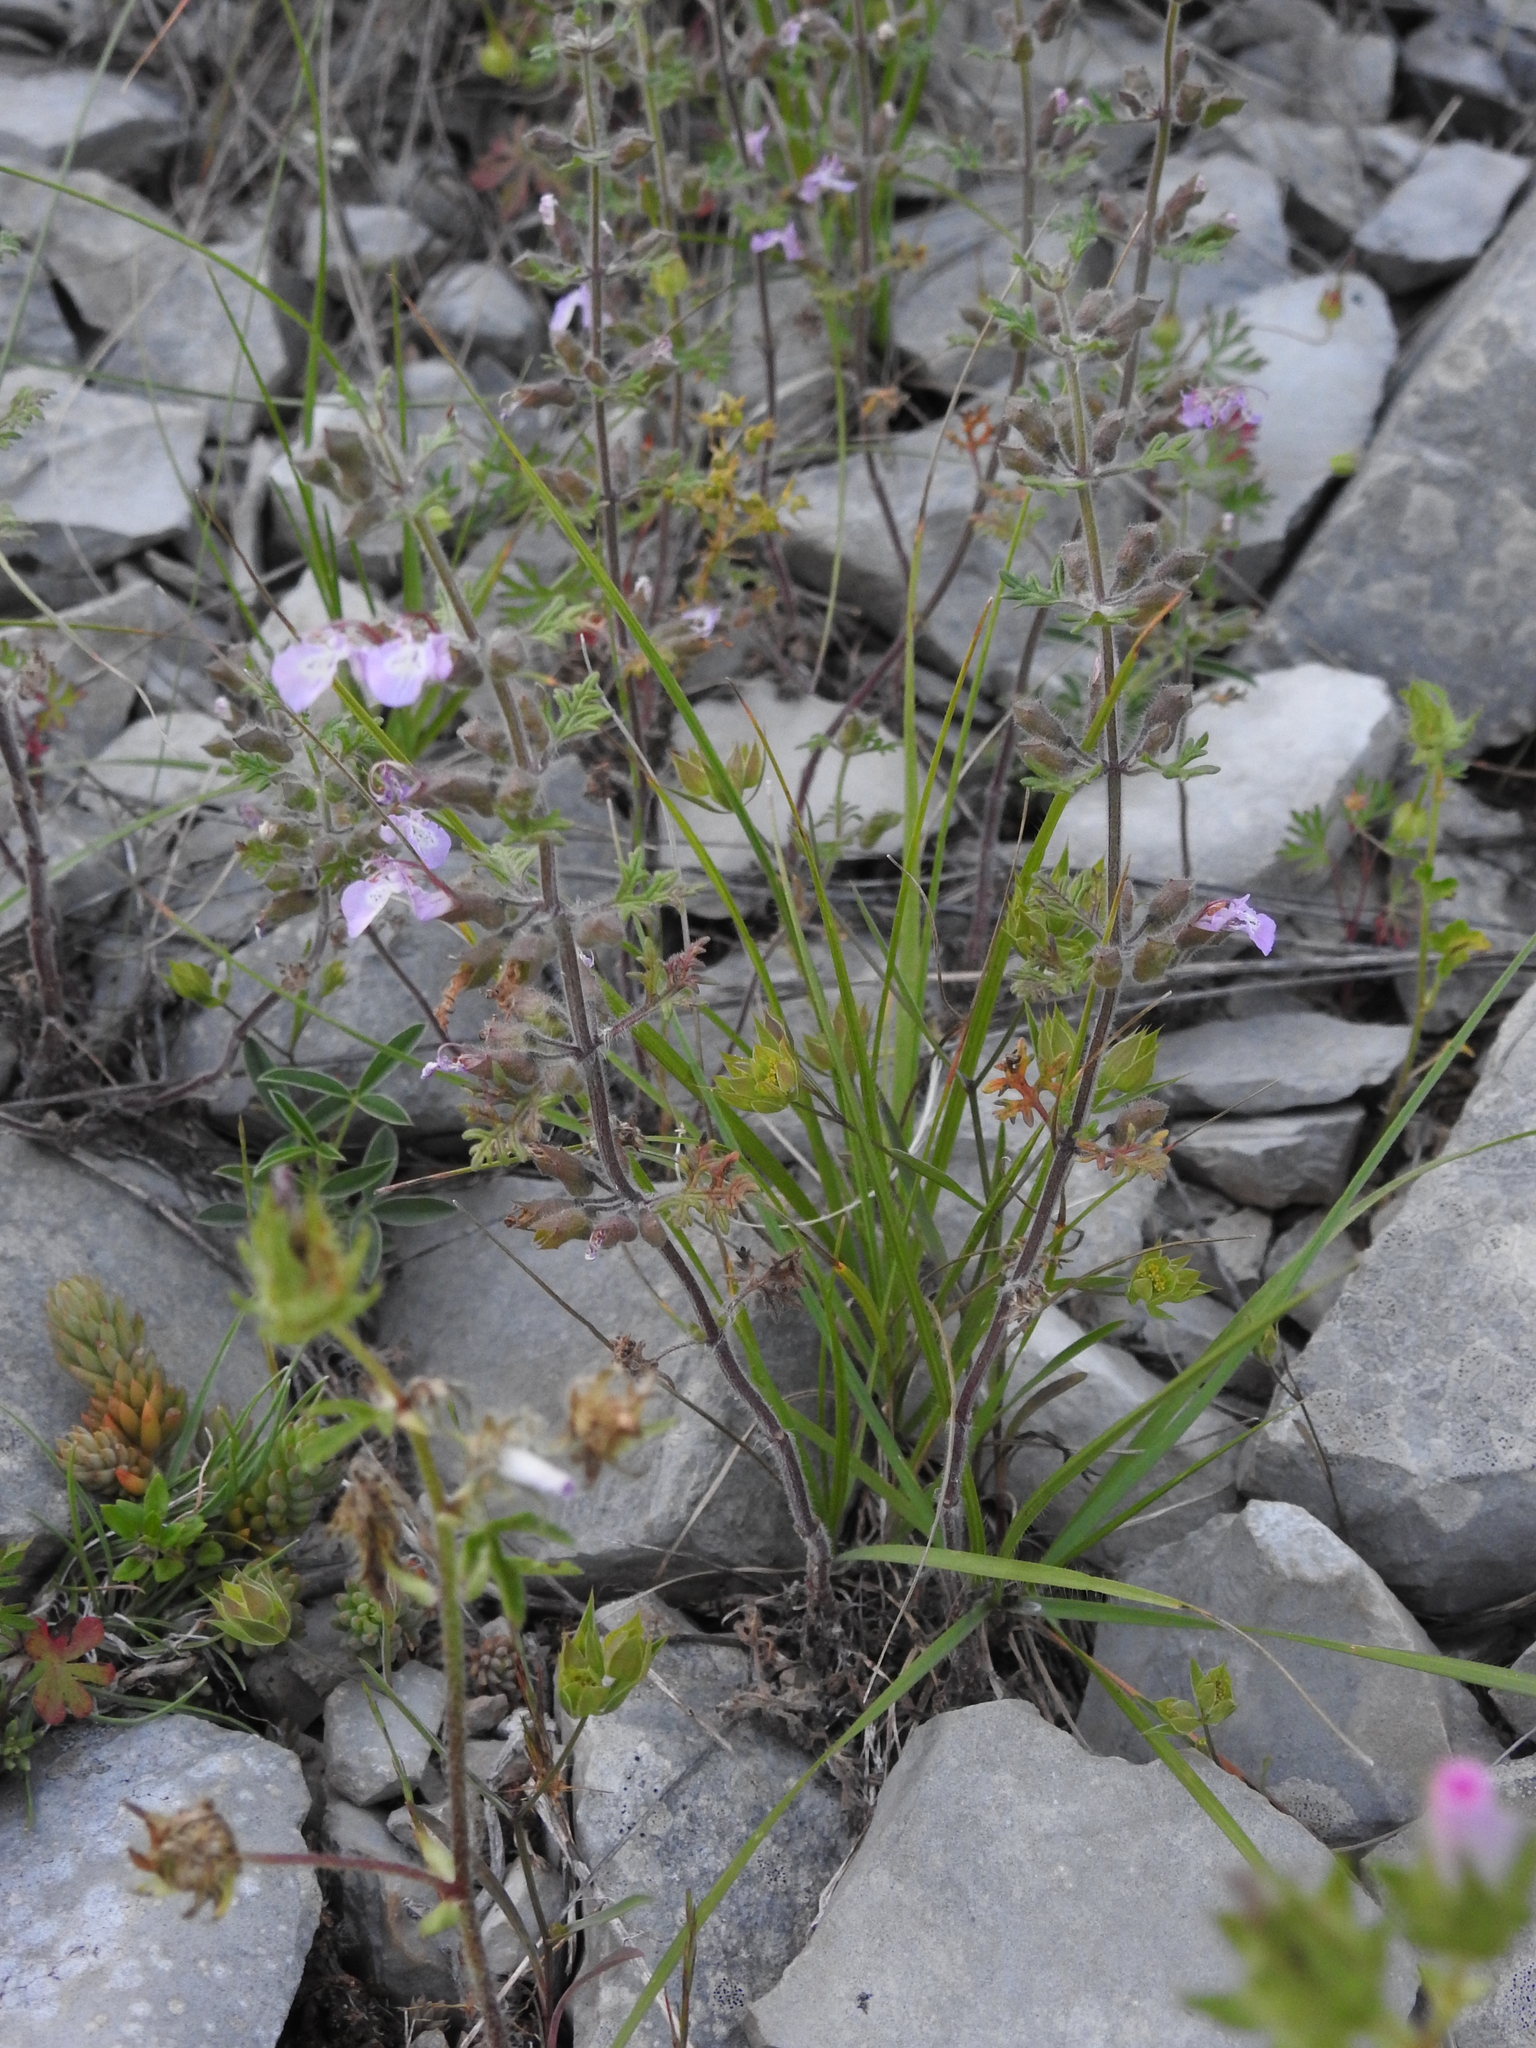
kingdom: Plantae
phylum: Tracheophyta
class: Magnoliopsida
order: Lamiales
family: Lamiaceae
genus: Teucrium
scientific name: Teucrium botrys
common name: Cut-leaved germander
